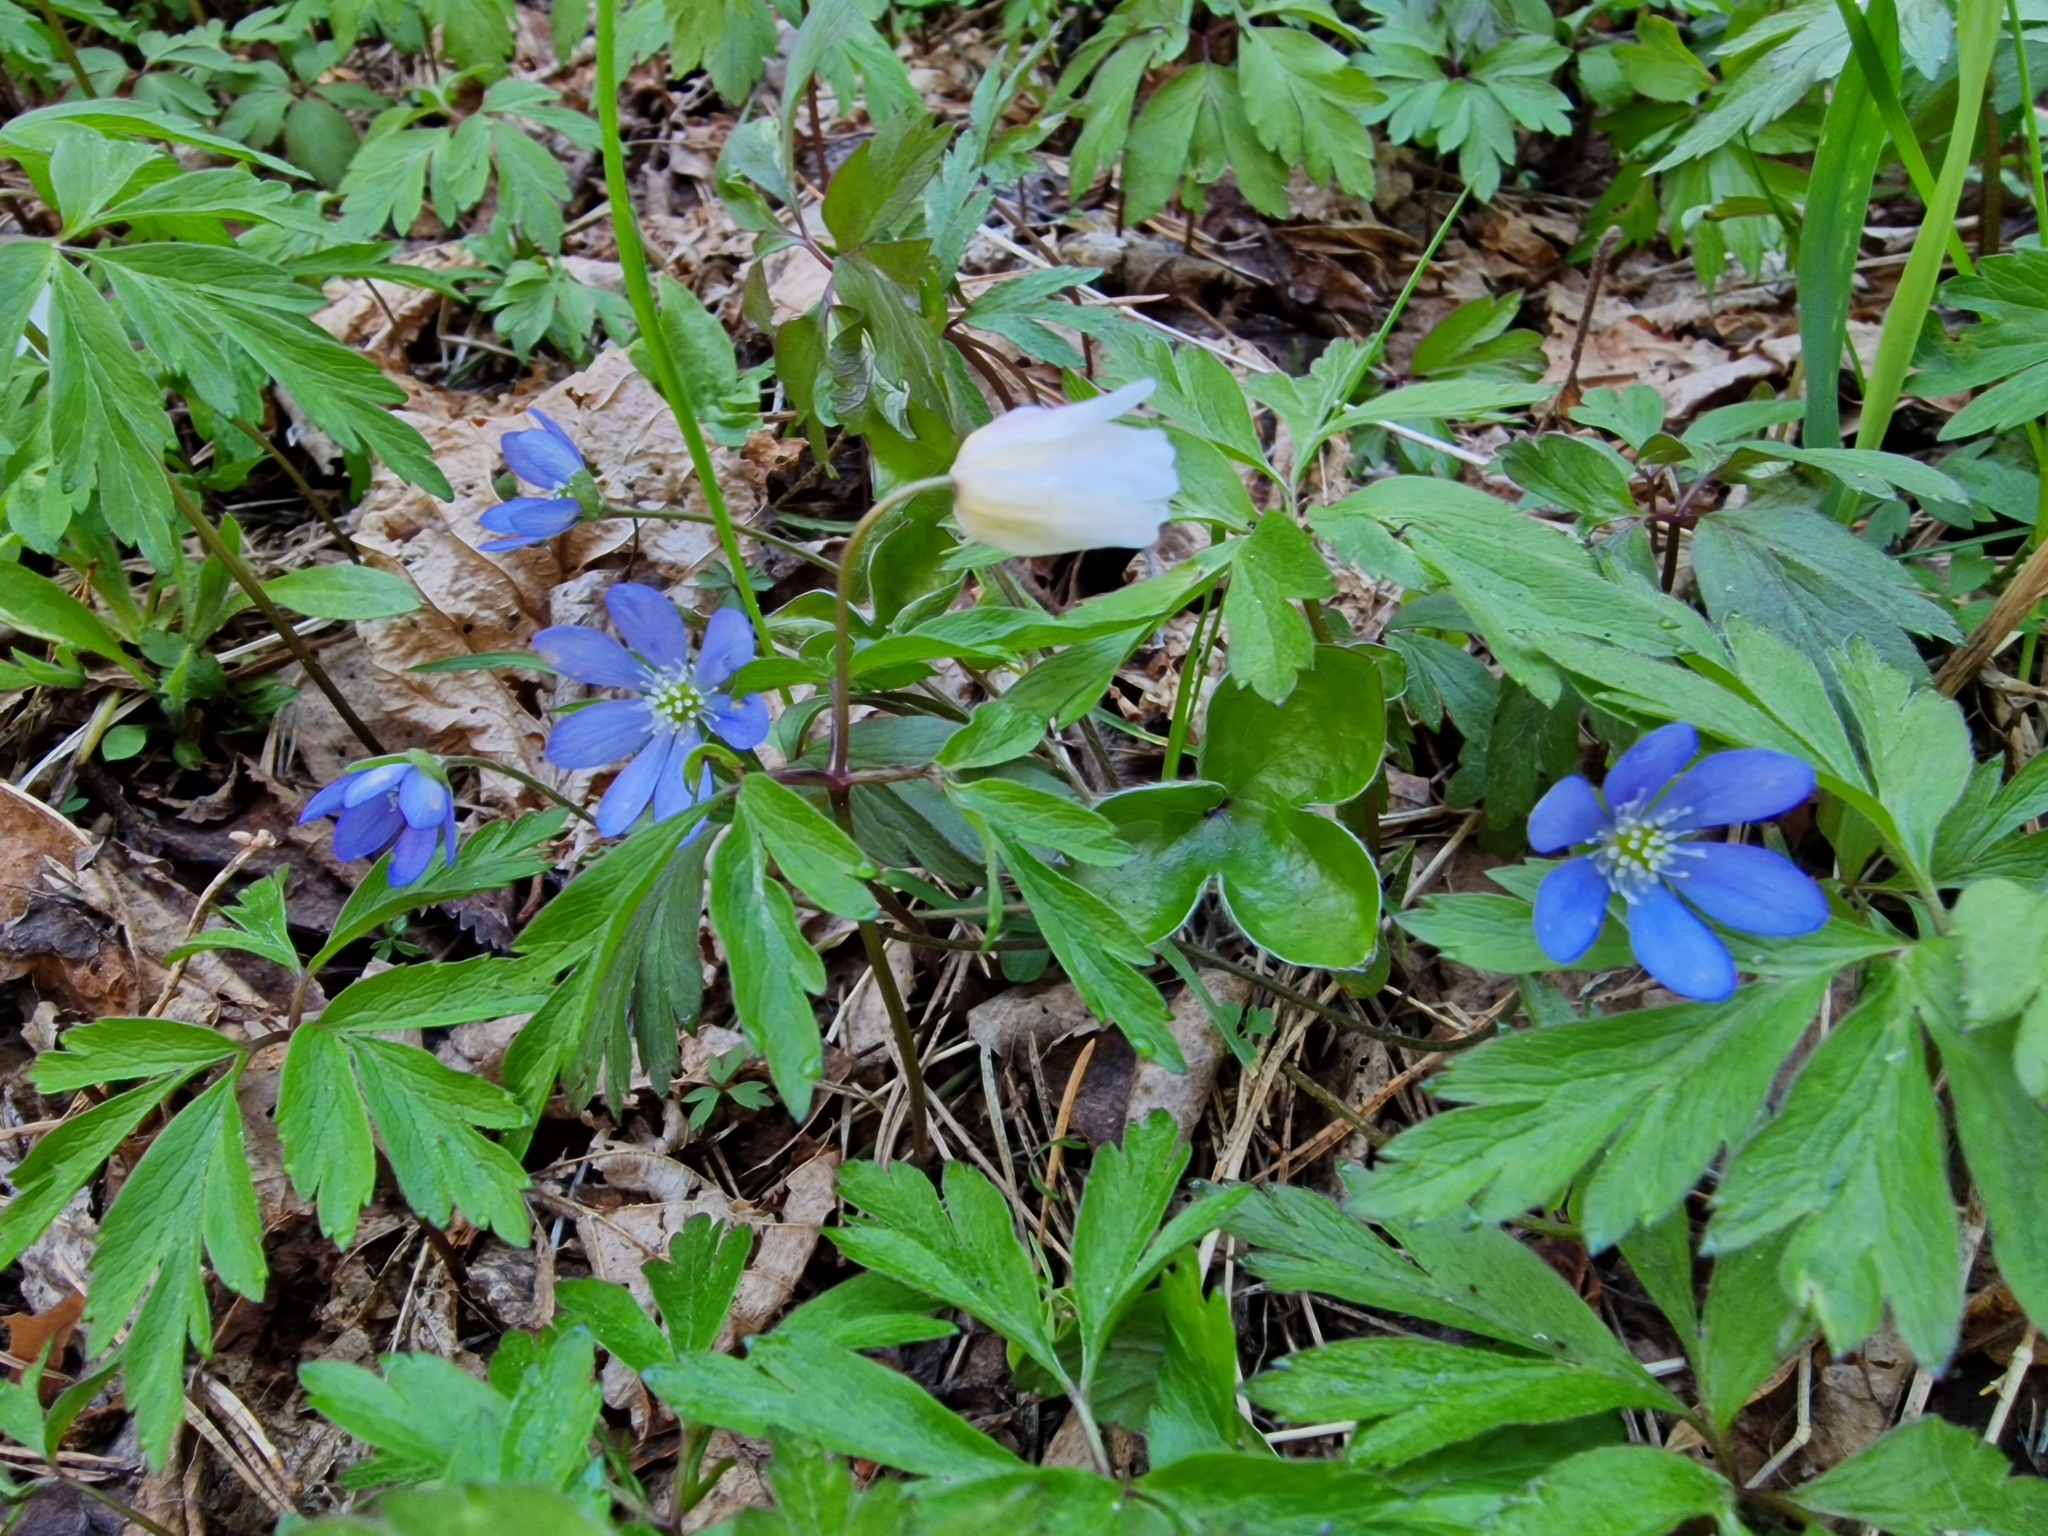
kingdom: Plantae
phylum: Tracheophyta
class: Magnoliopsida
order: Ranunculales
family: Ranunculaceae
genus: Hepatica
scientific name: Hepatica nobilis
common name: Liverleaf
